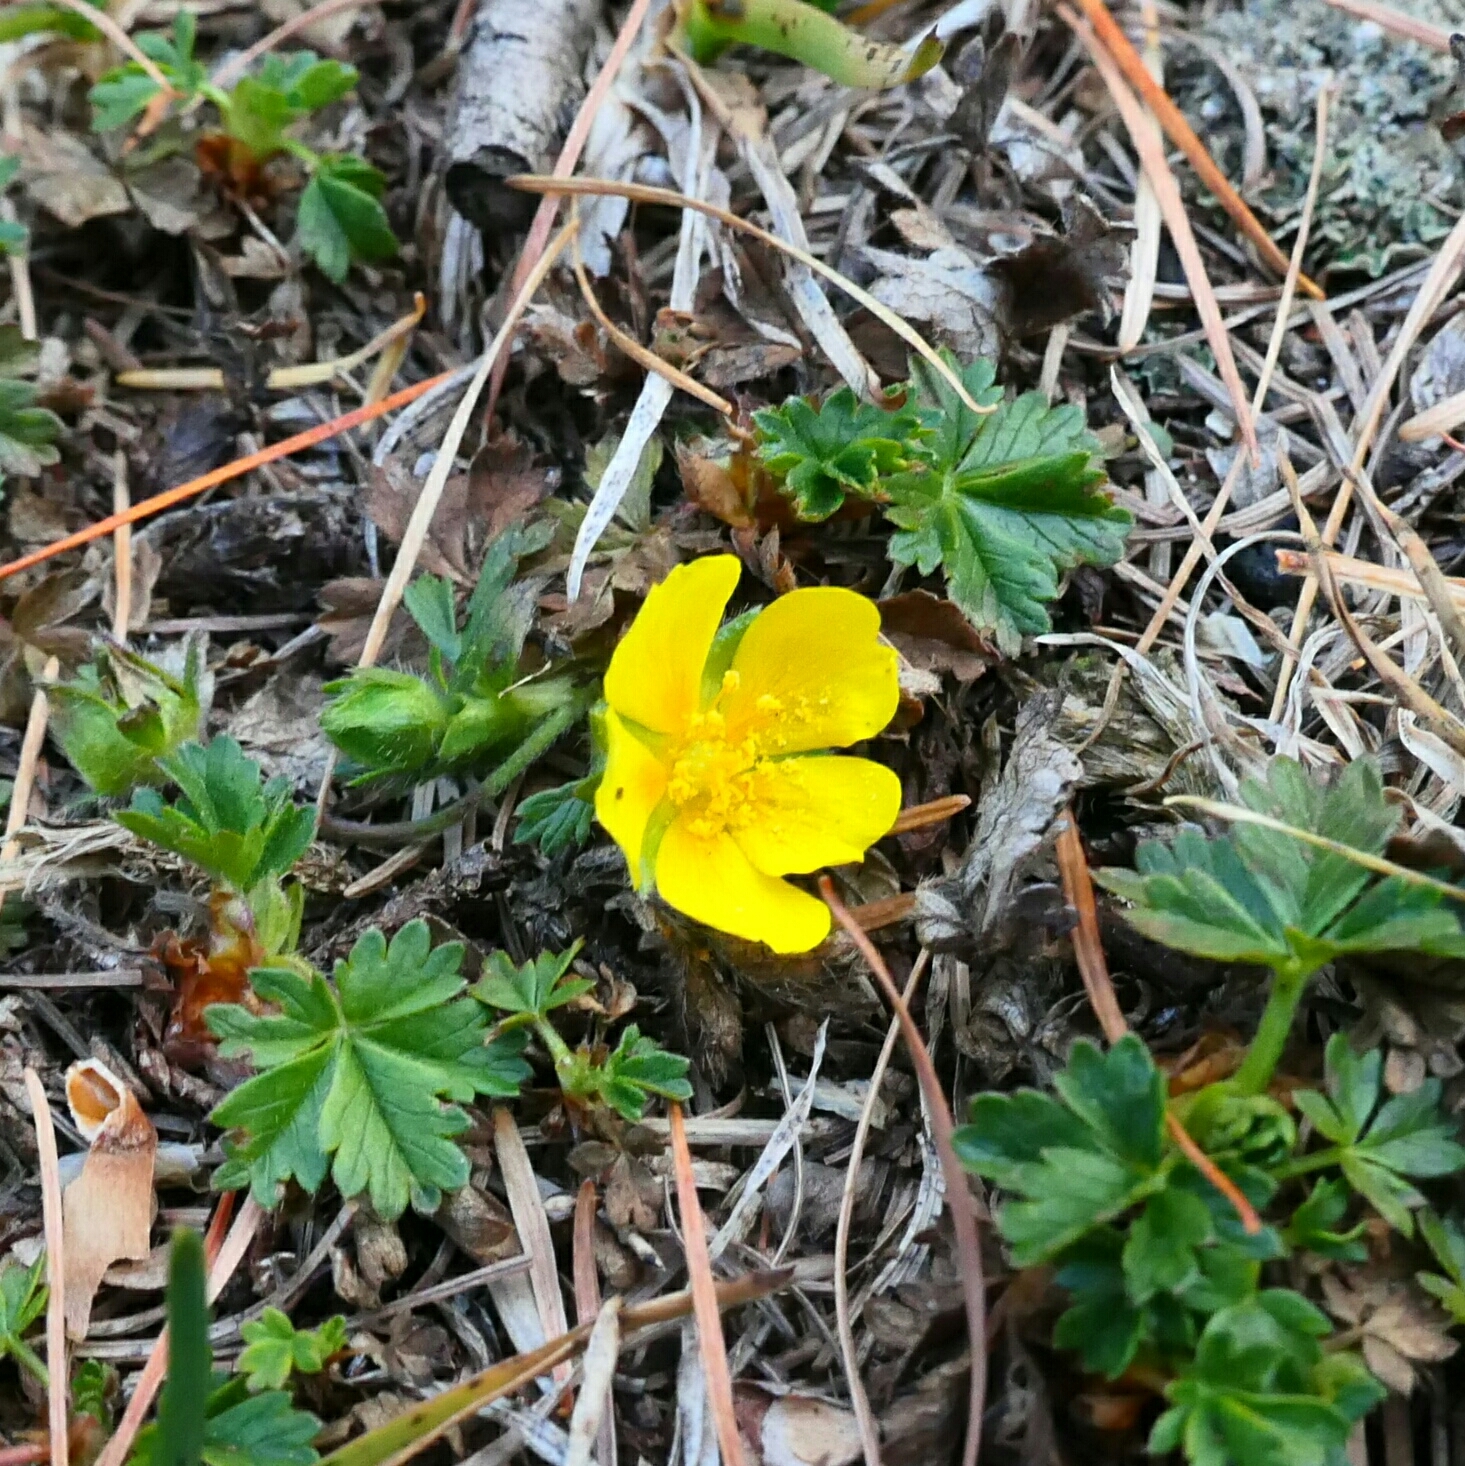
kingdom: Plantae
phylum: Tracheophyta
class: Magnoliopsida
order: Rosales
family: Rosaceae
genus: Potentilla
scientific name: Potentilla aurea
